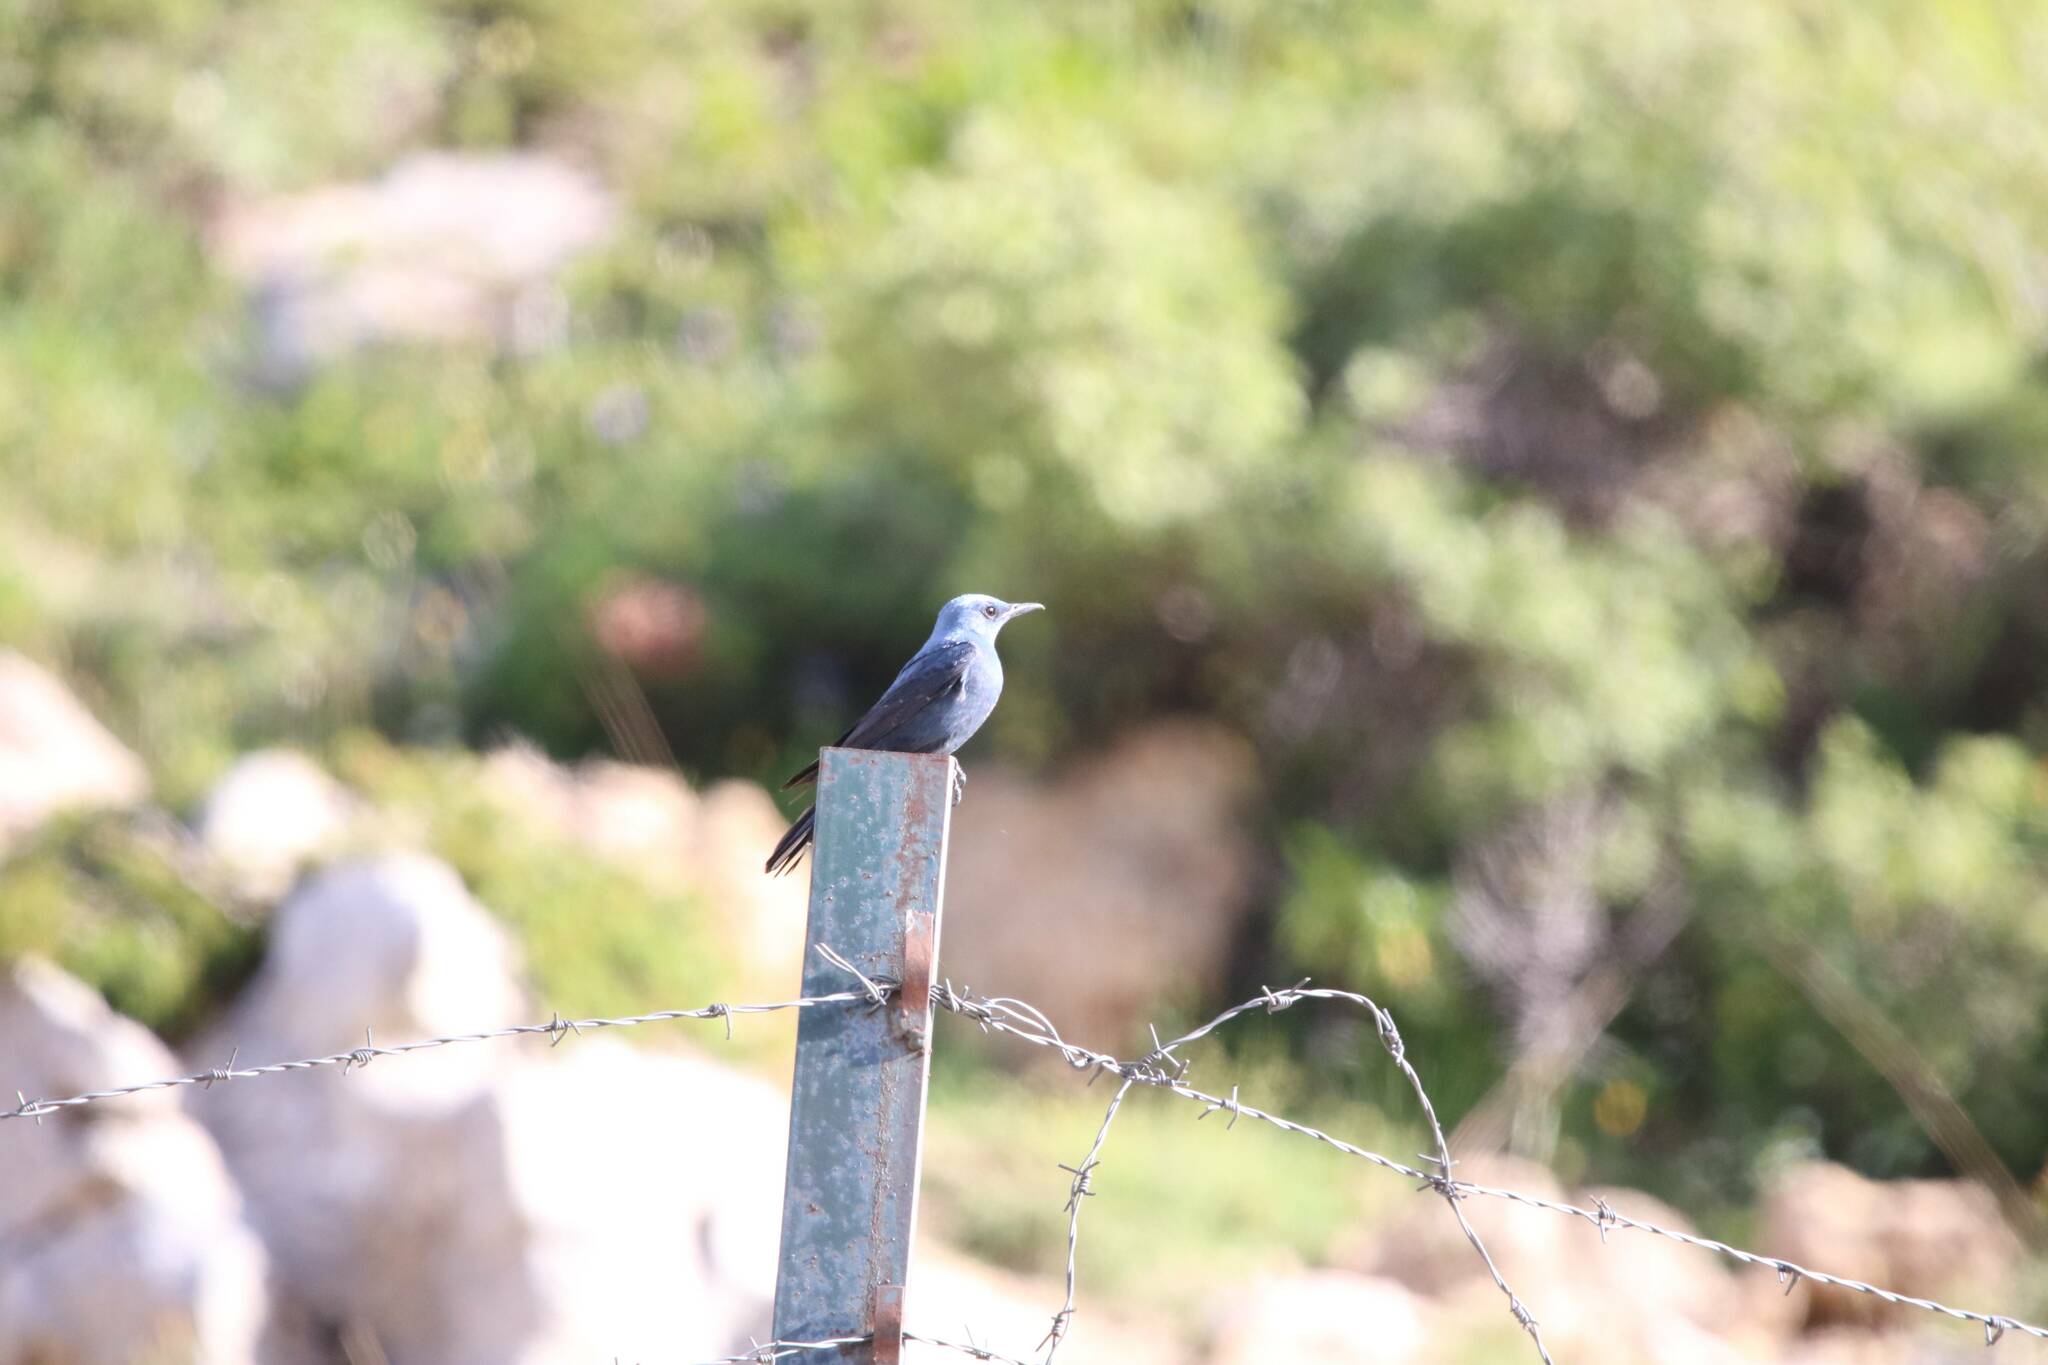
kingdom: Animalia
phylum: Chordata
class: Aves
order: Passeriformes
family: Muscicapidae
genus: Monticola
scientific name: Monticola solitarius
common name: Blue rock thrush
